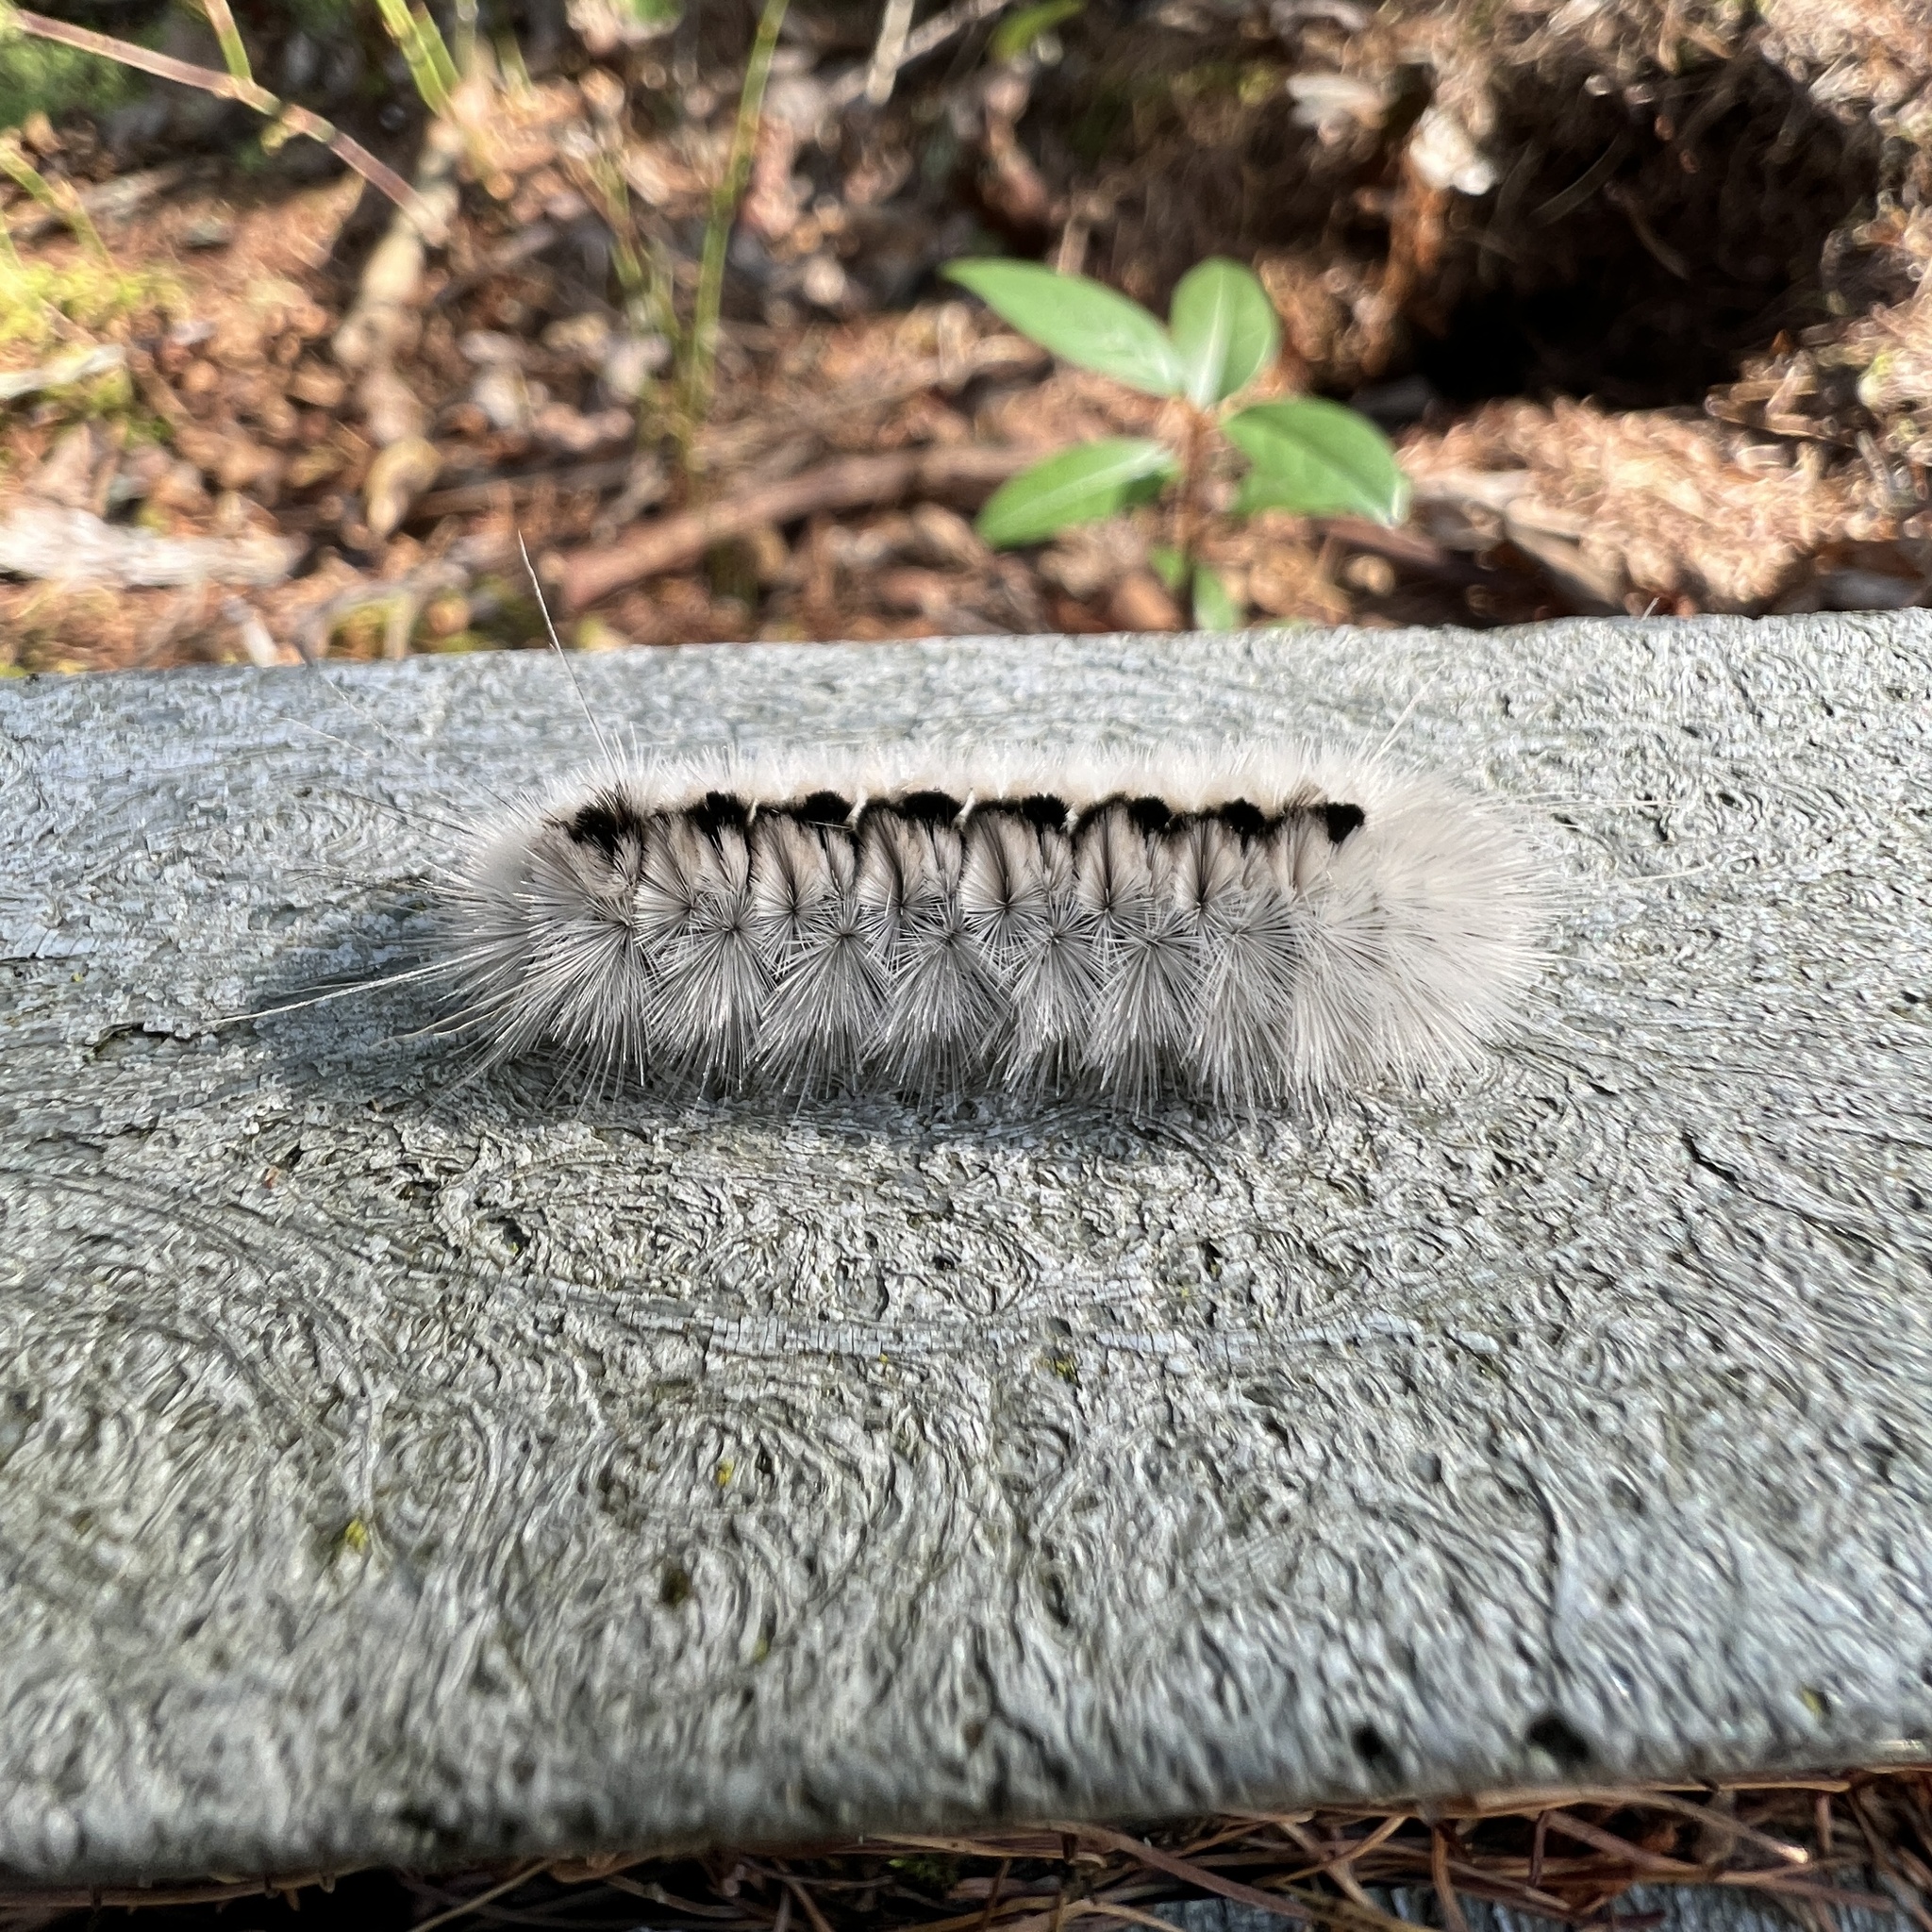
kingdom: Animalia
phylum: Arthropoda
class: Insecta
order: Lepidoptera
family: Erebidae
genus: Lophocampa
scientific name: Lophocampa caryae
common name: Hickory tussock moth
